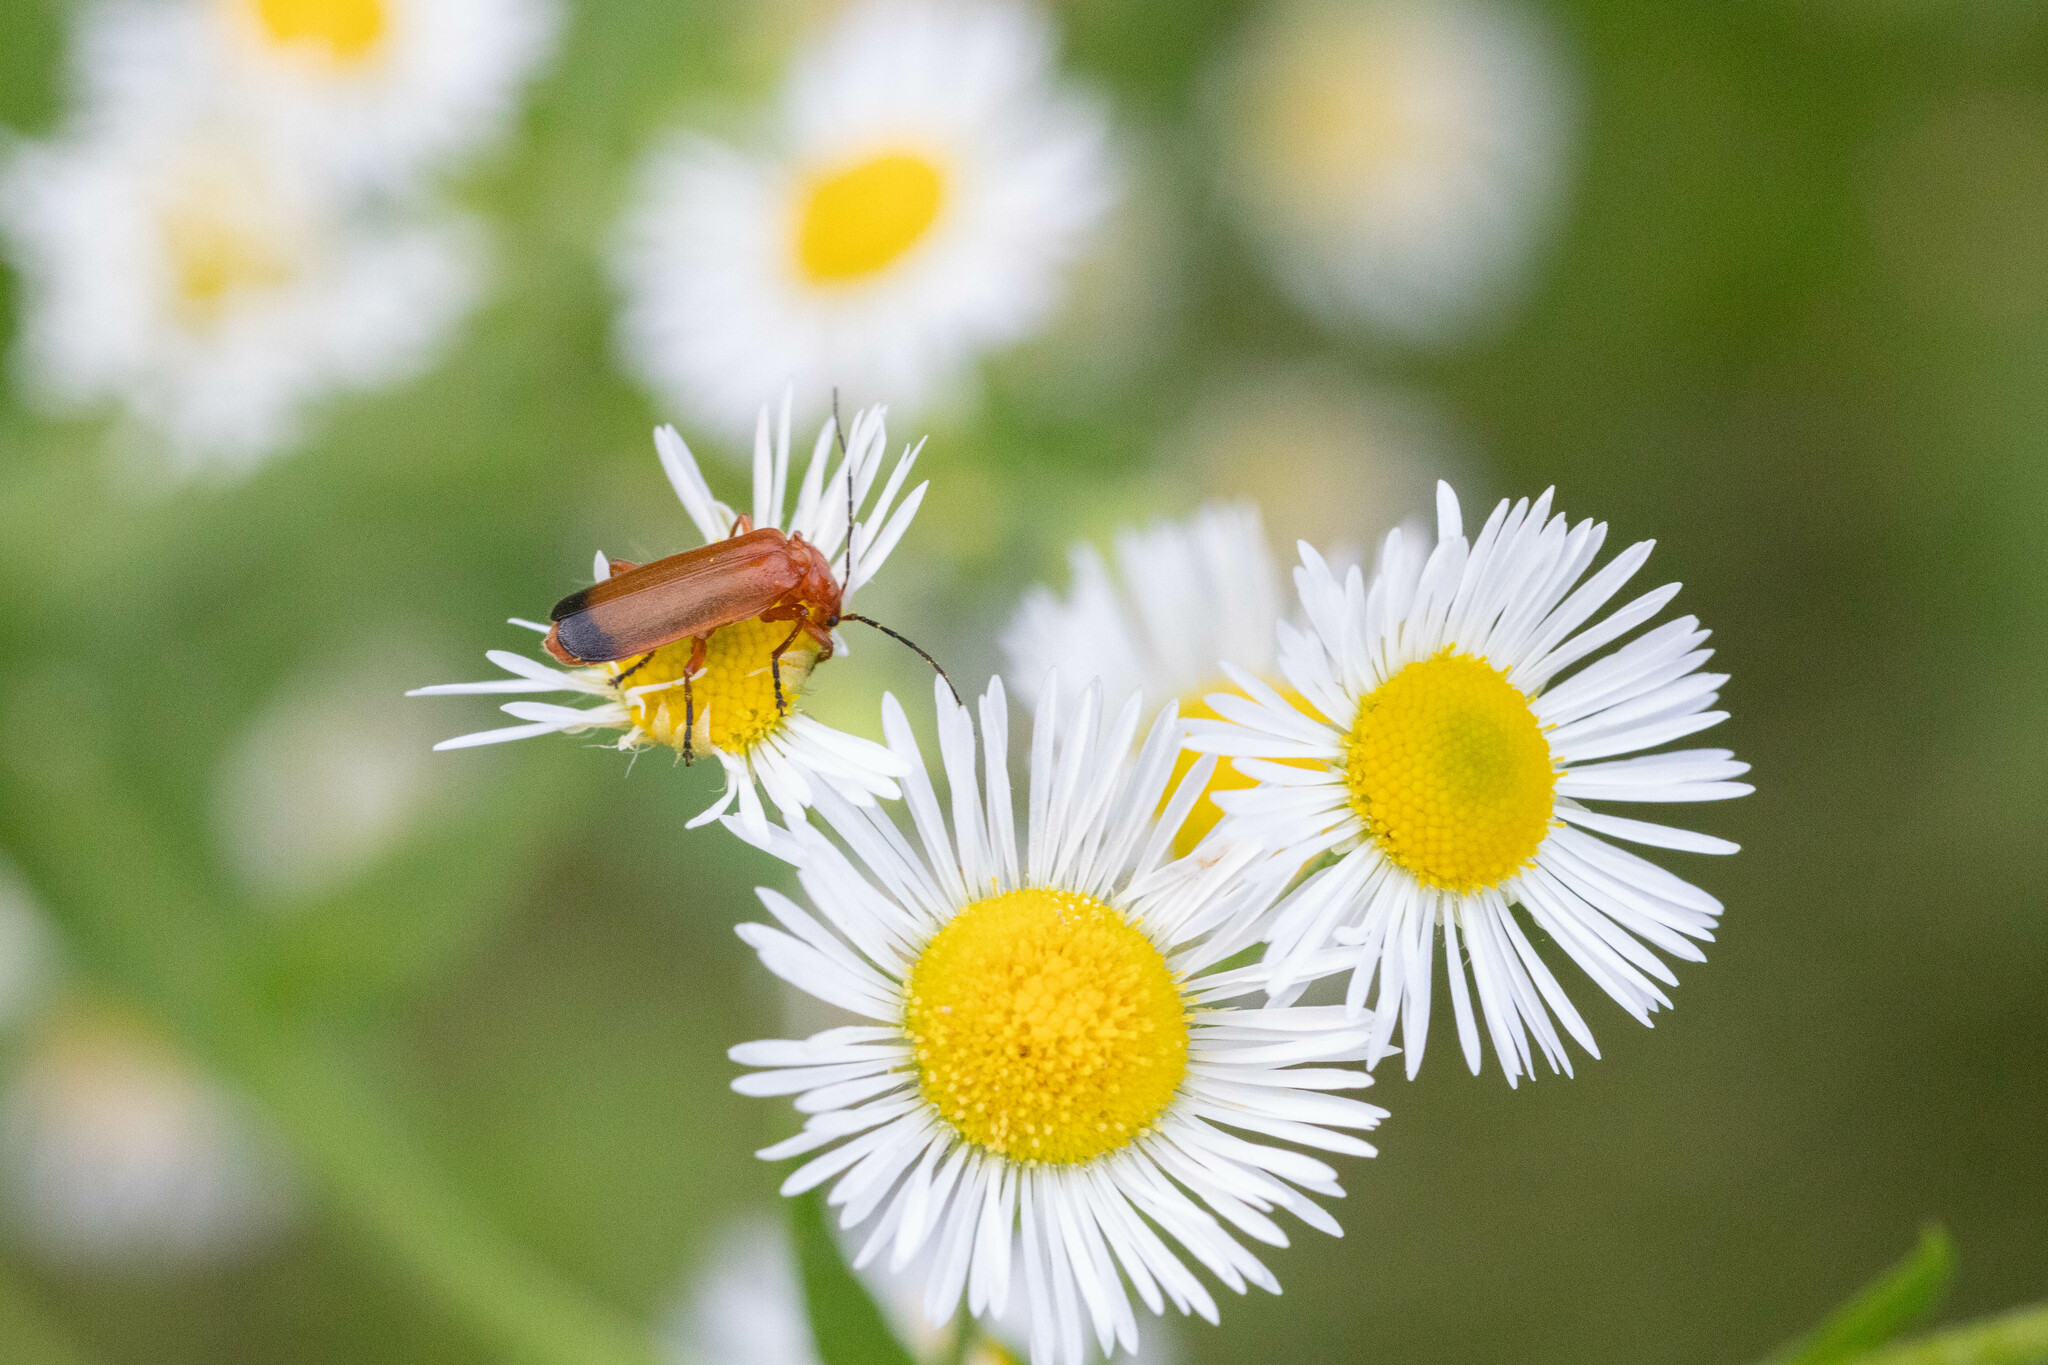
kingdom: Animalia
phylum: Arthropoda
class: Insecta
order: Coleoptera
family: Cantharidae
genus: Rhagonycha
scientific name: Rhagonycha fulva
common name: Common red soldier beetle
